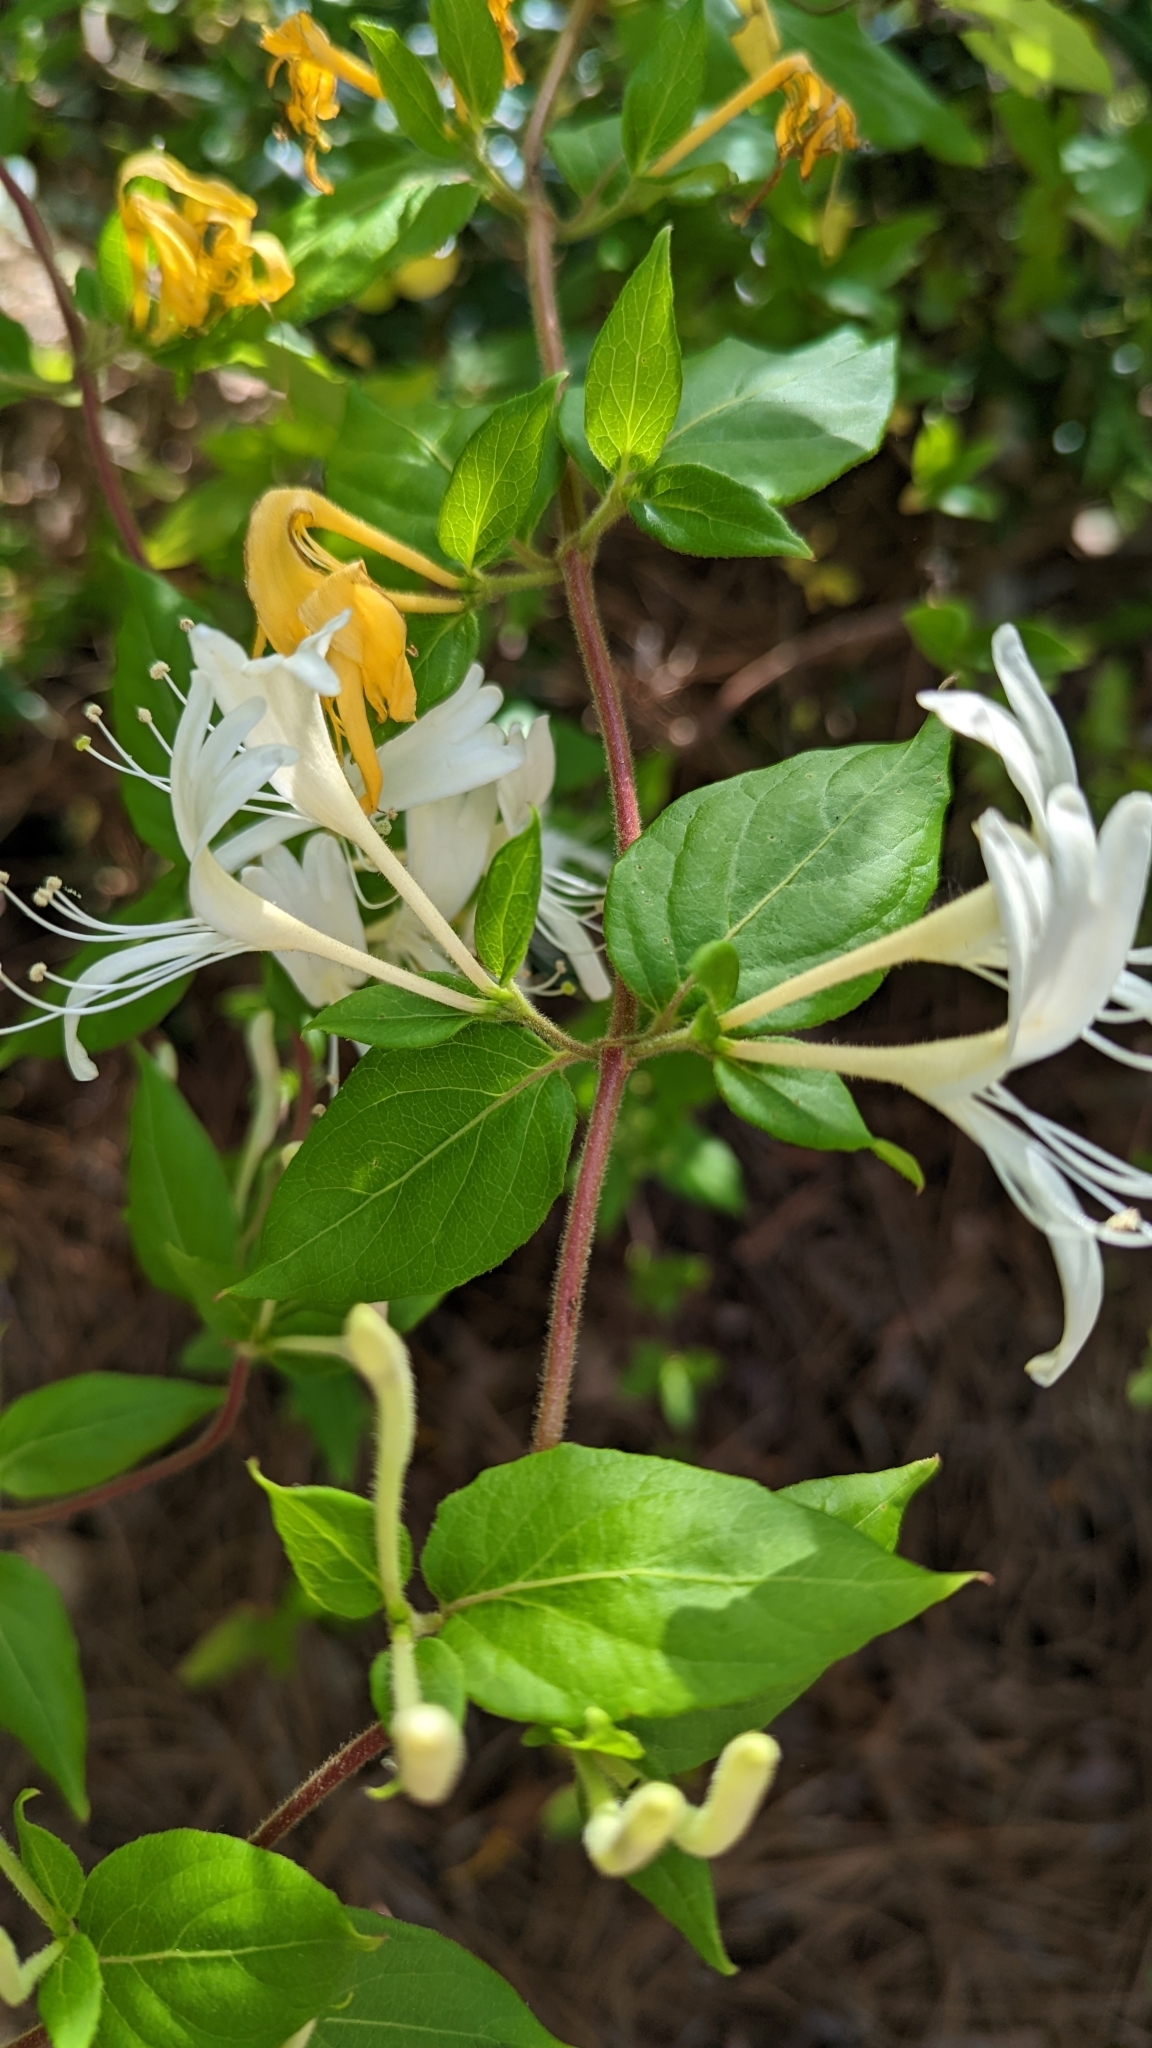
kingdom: Plantae
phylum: Tracheophyta
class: Magnoliopsida
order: Dipsacales
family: Caprifoliaceae
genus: Lonicera
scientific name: Lonicera japonica
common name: Japanese honeysuckle
